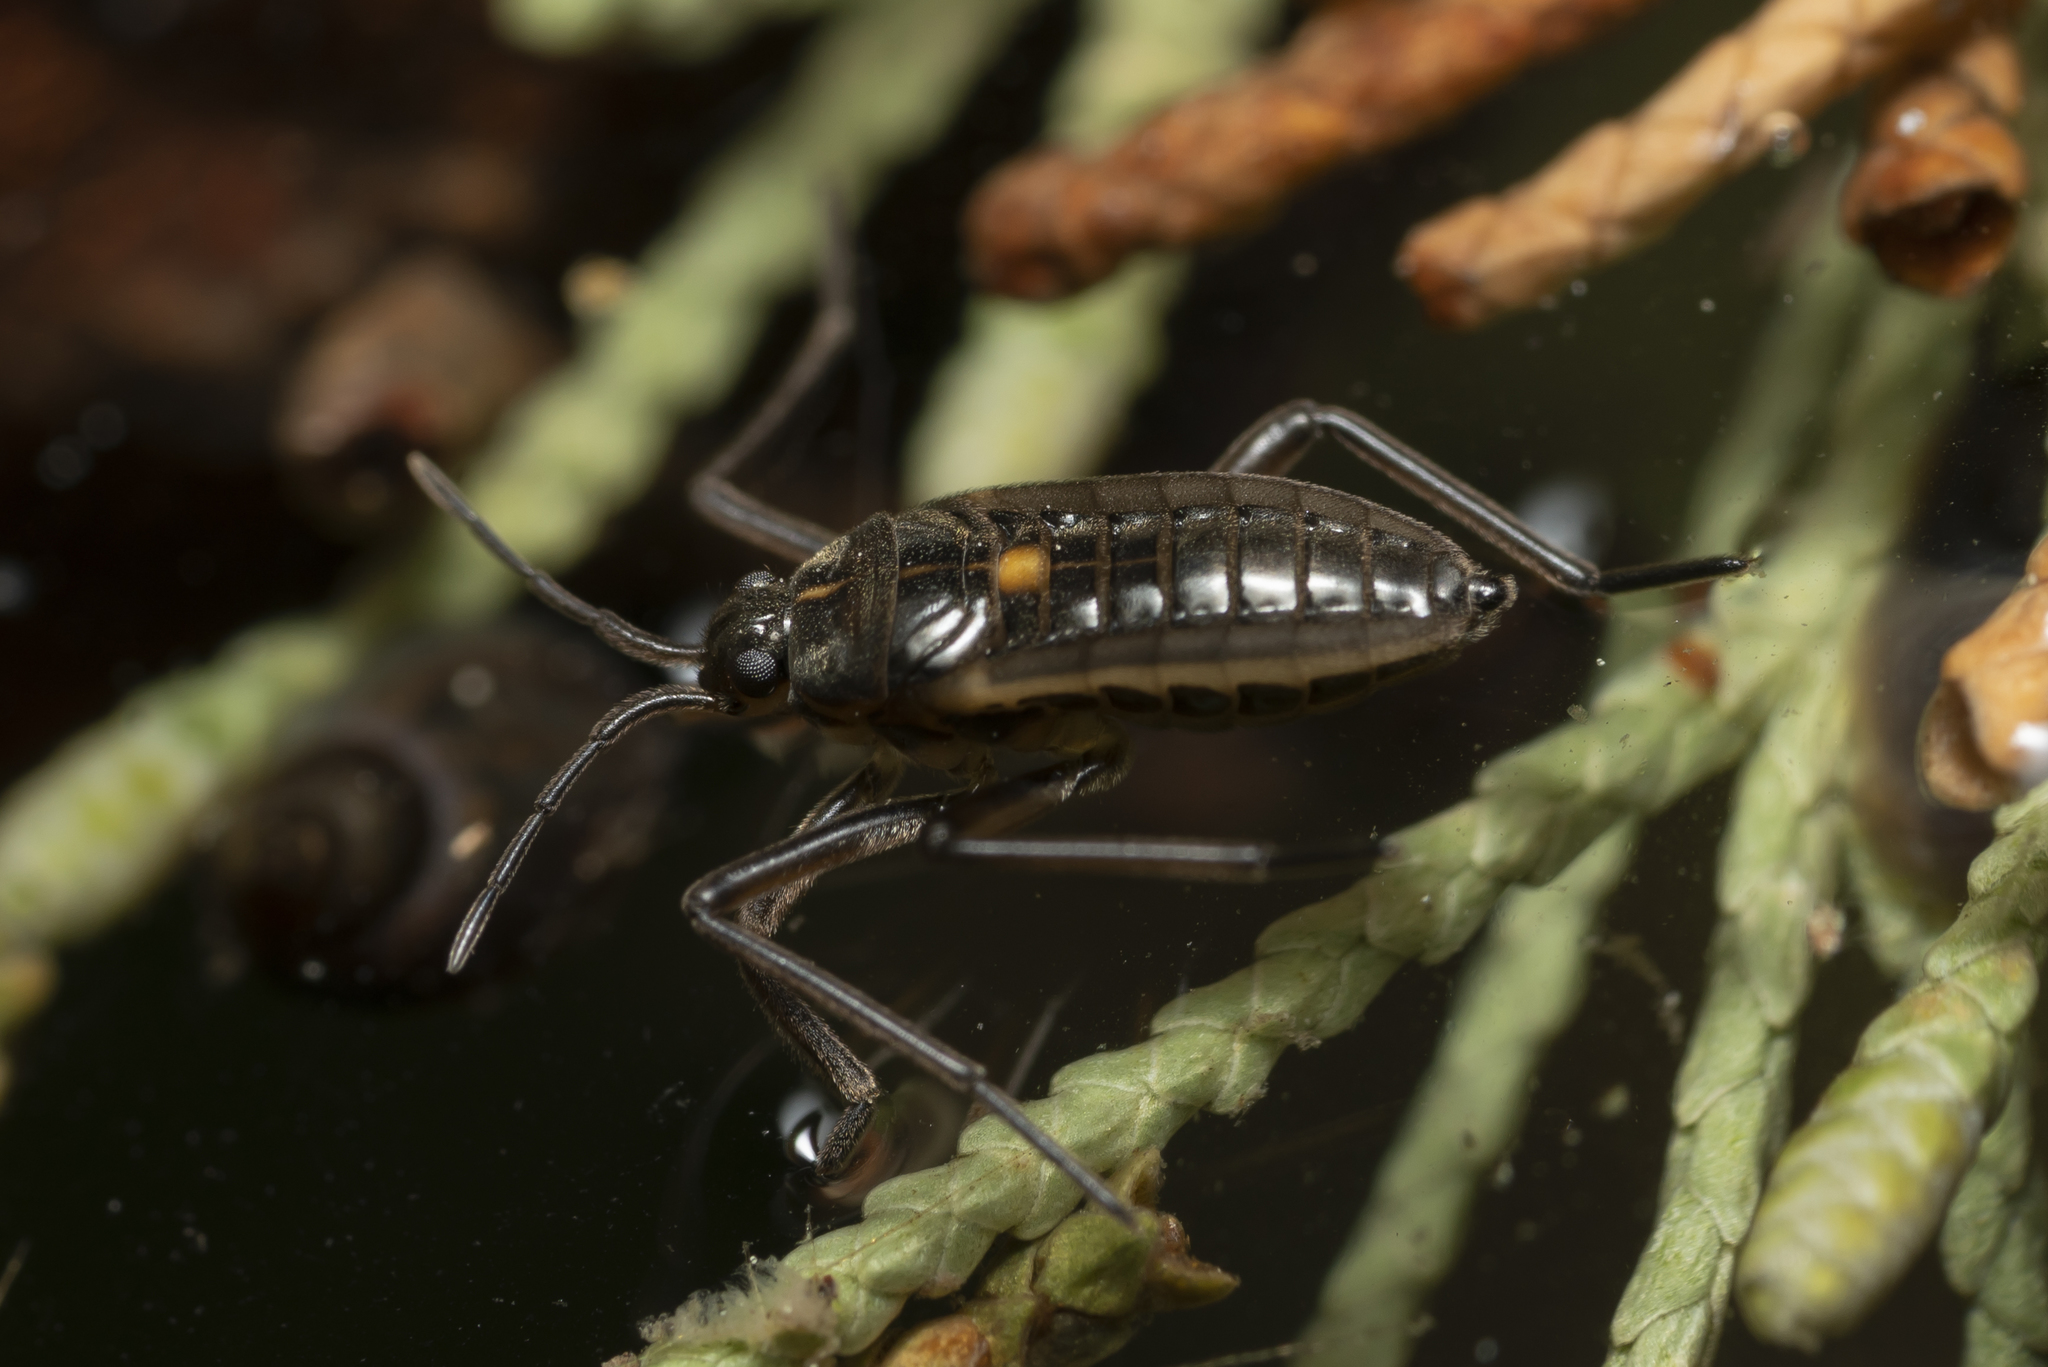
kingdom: Animalia
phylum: Arthropoda
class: Insecta
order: Hemiptera
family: Veliidae
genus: Velia
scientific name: Velia mariae
